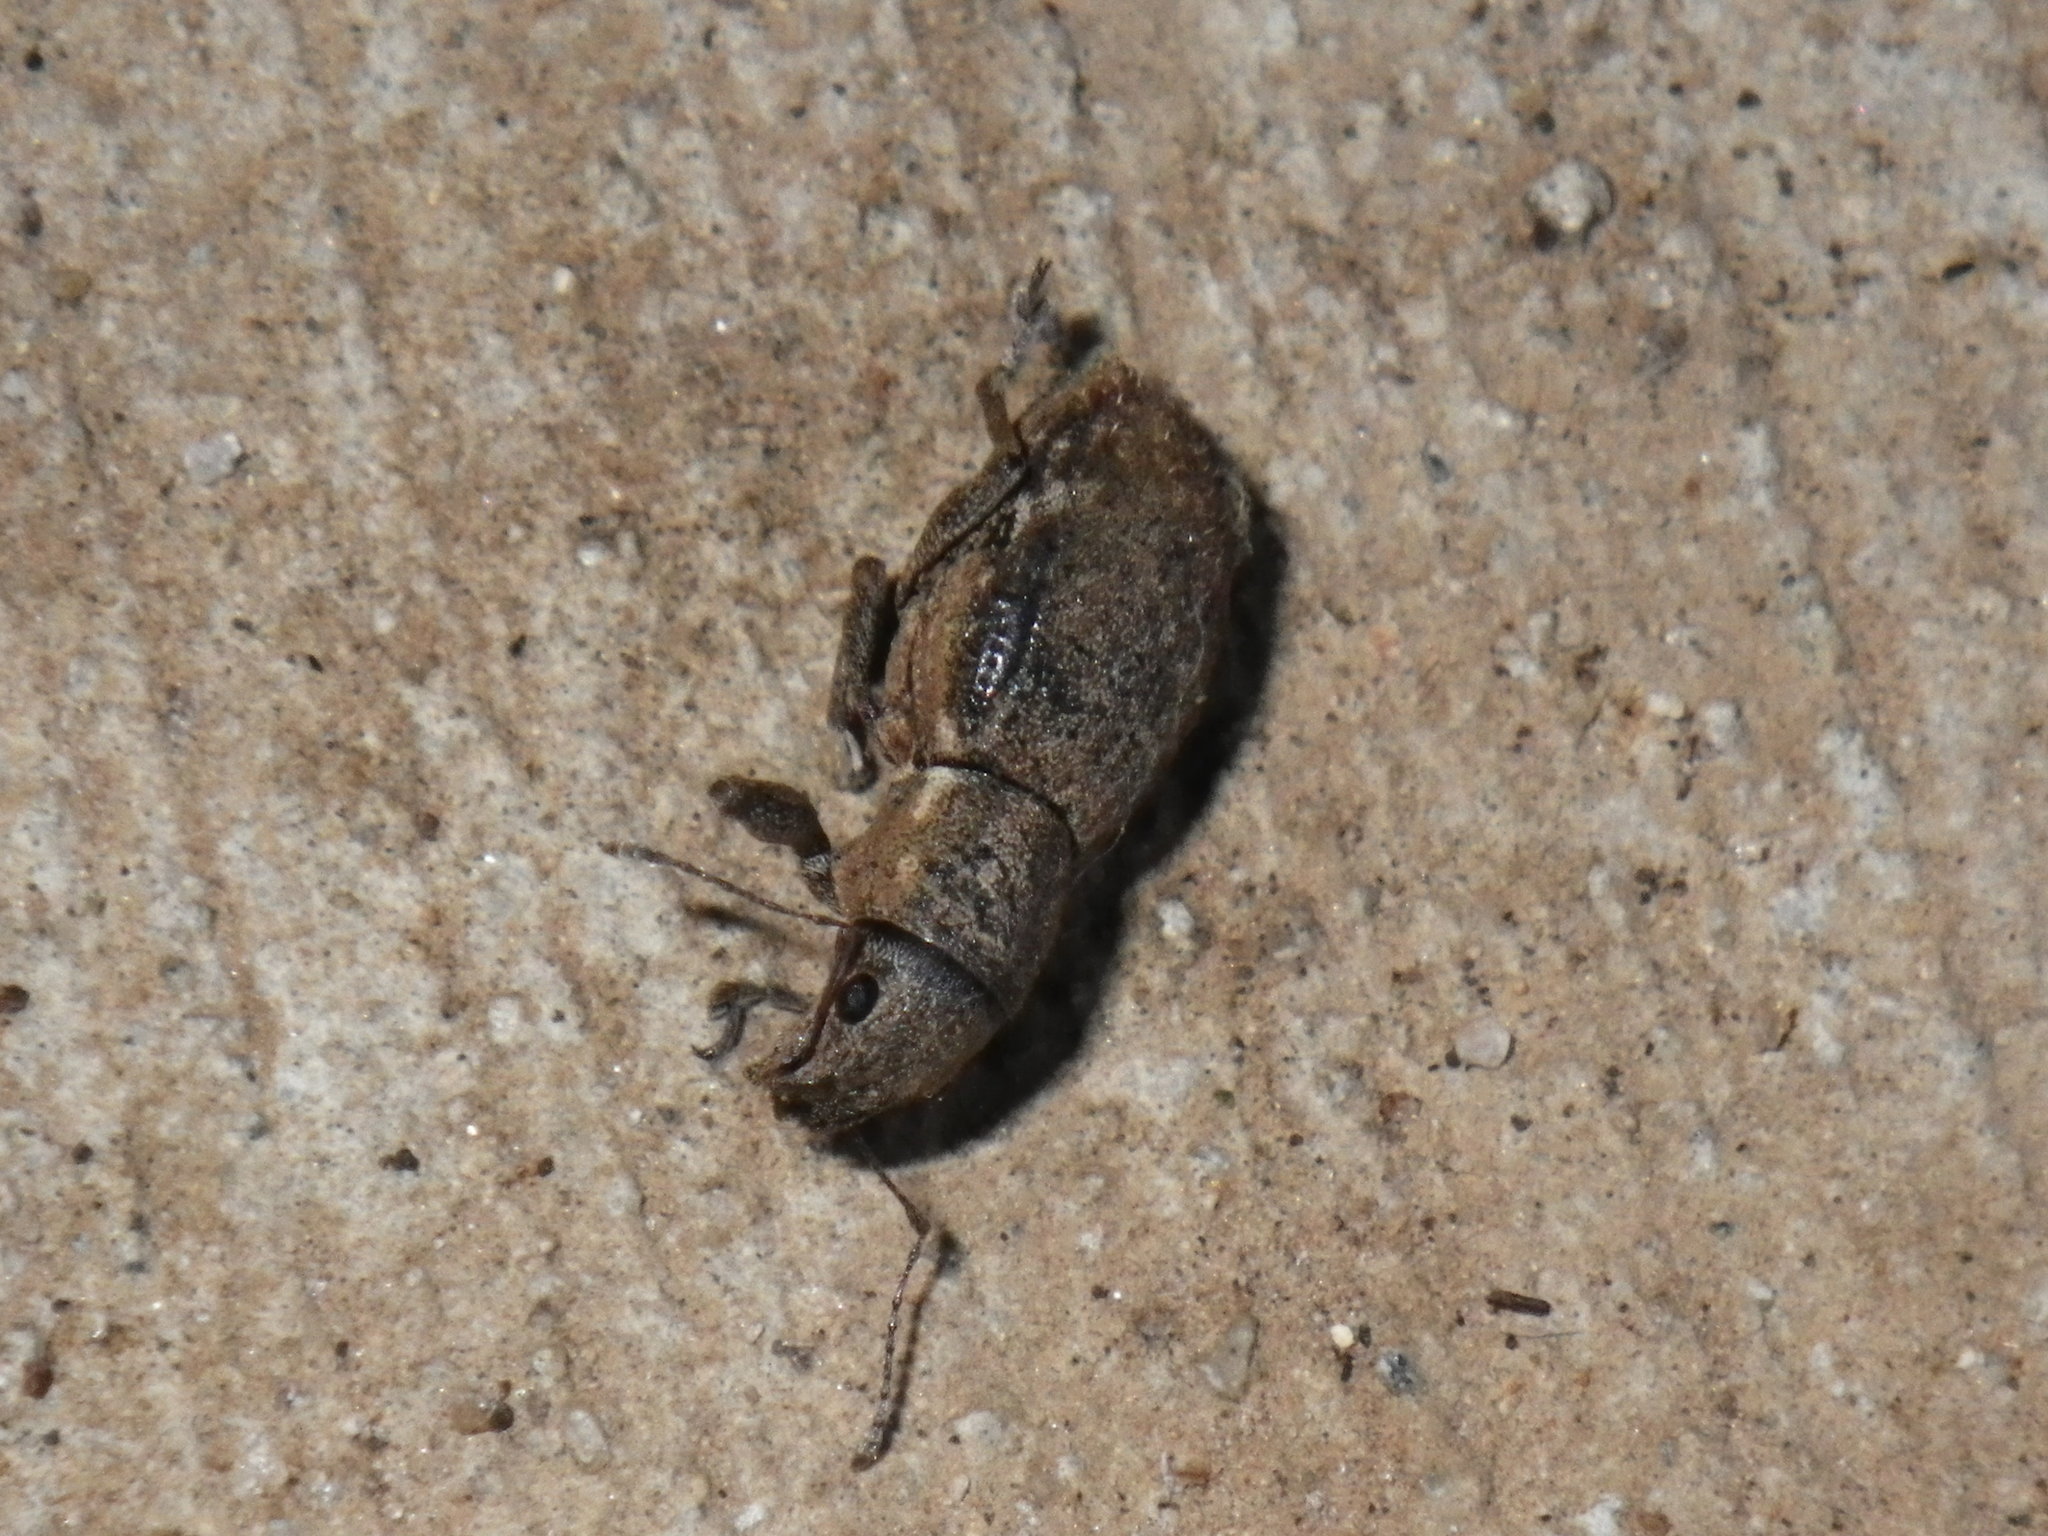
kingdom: Animalia
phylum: Arthropoda
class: Insecta
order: Coleoptera
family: Curculionidae
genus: Naupactus
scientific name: Naupactus cervinus
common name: Fuller rose beetle
